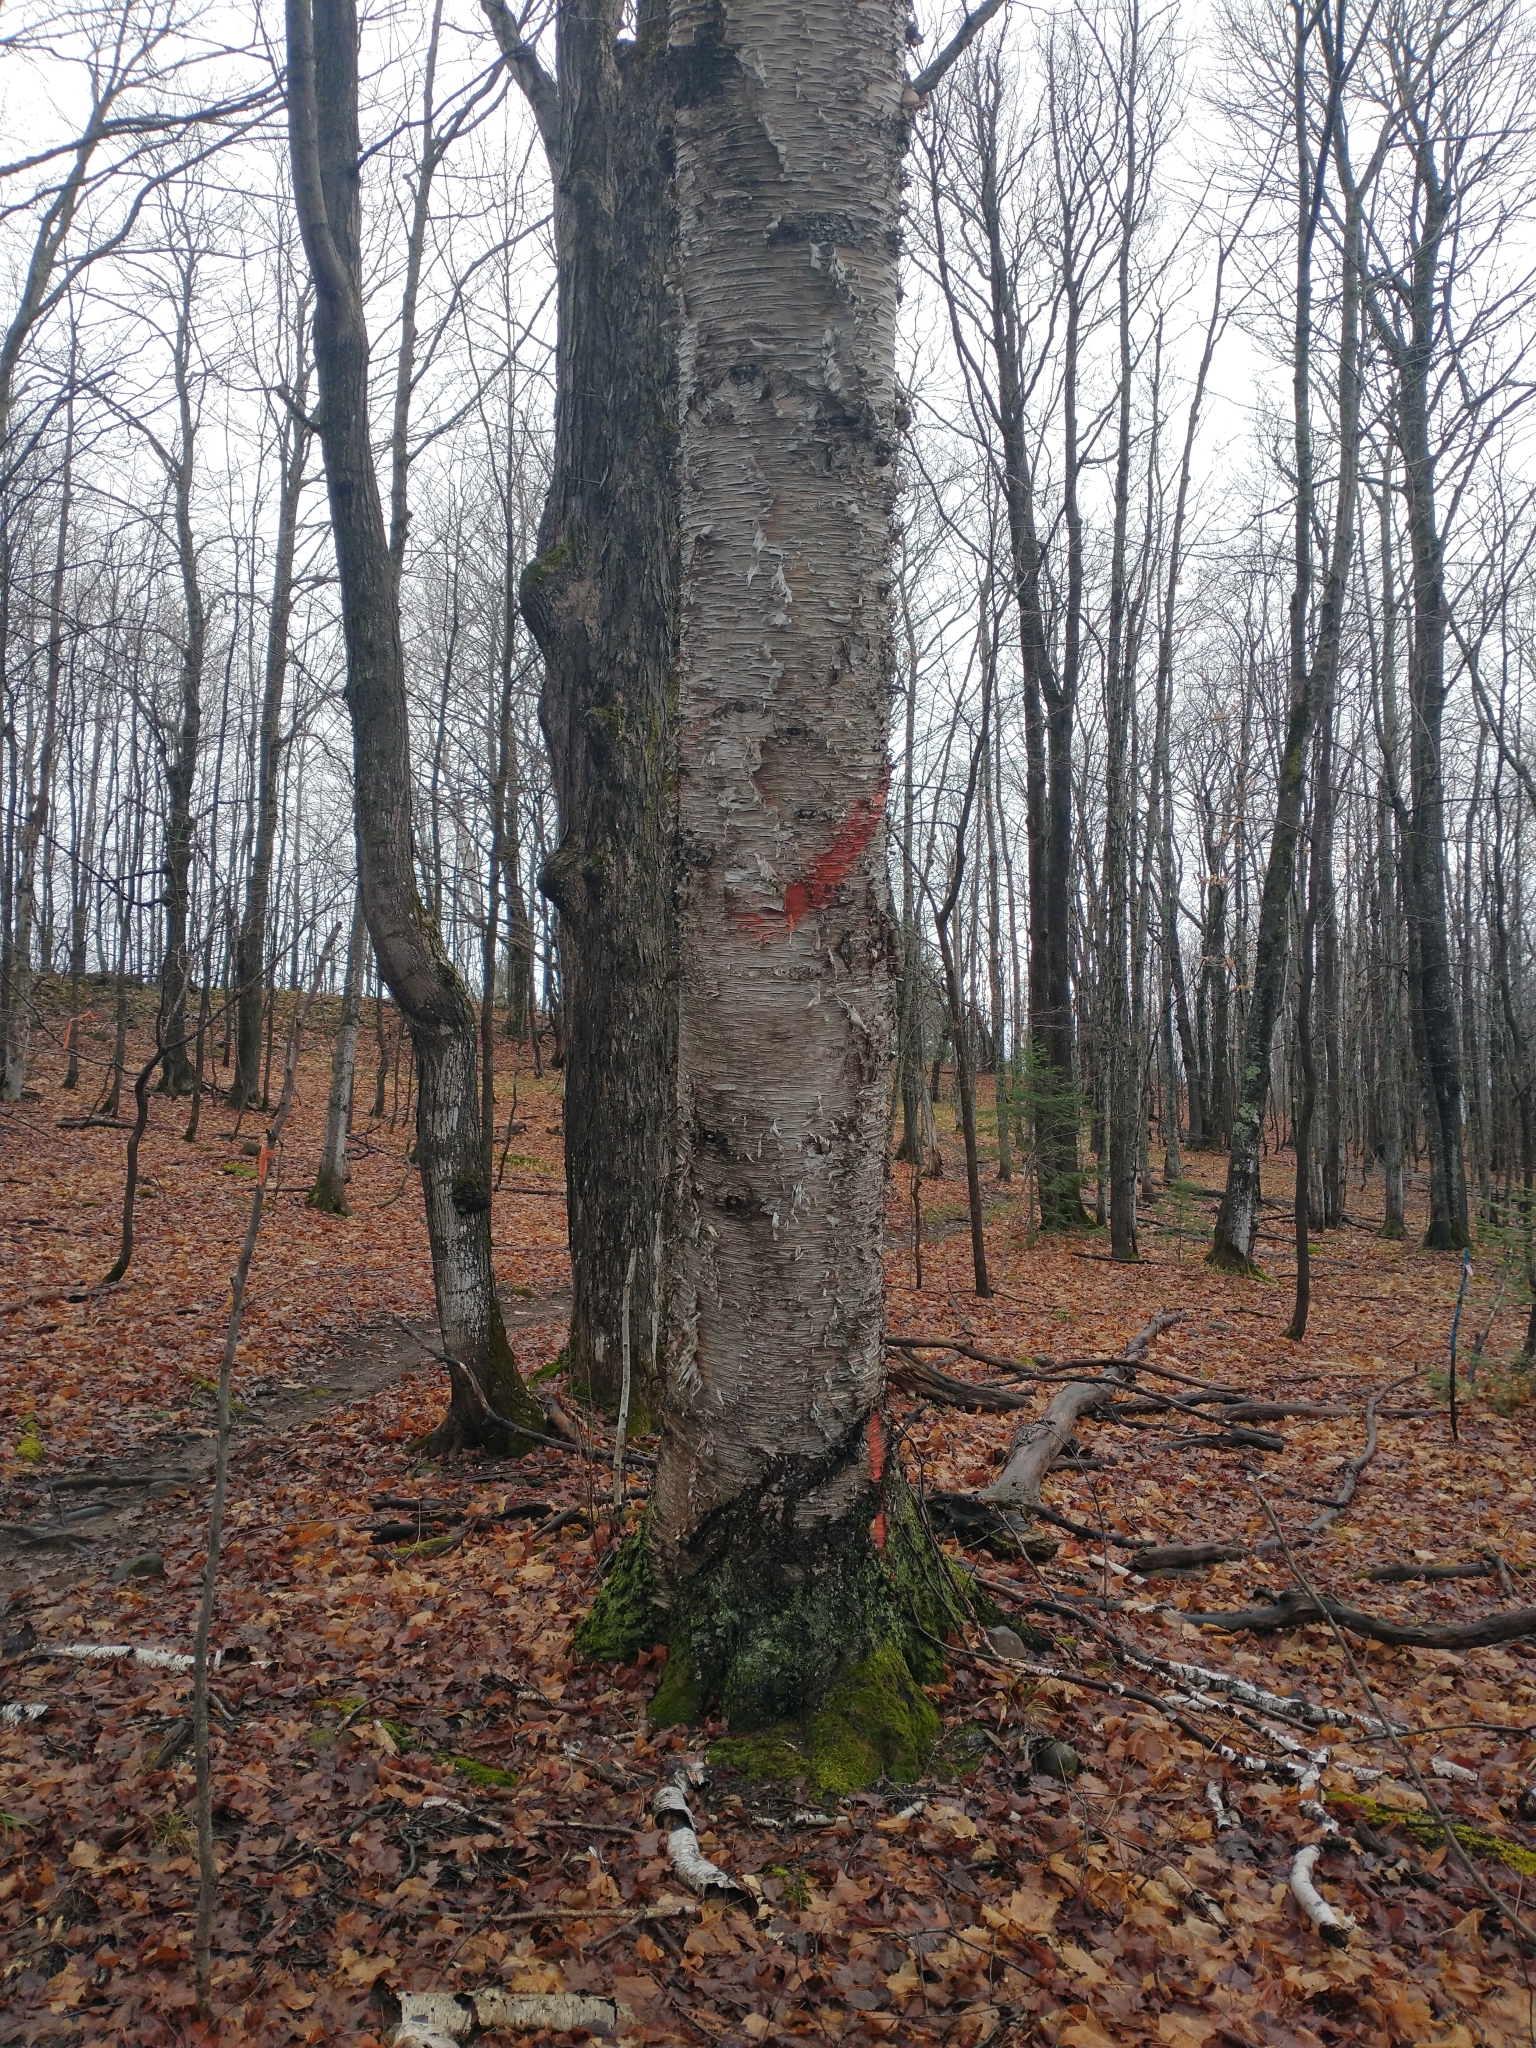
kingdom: Plantae
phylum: Tracheophyta
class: Magnoliopsida
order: Fagales
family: Betulaceae
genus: Betula
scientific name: Betula papyrifera
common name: Paper birch
